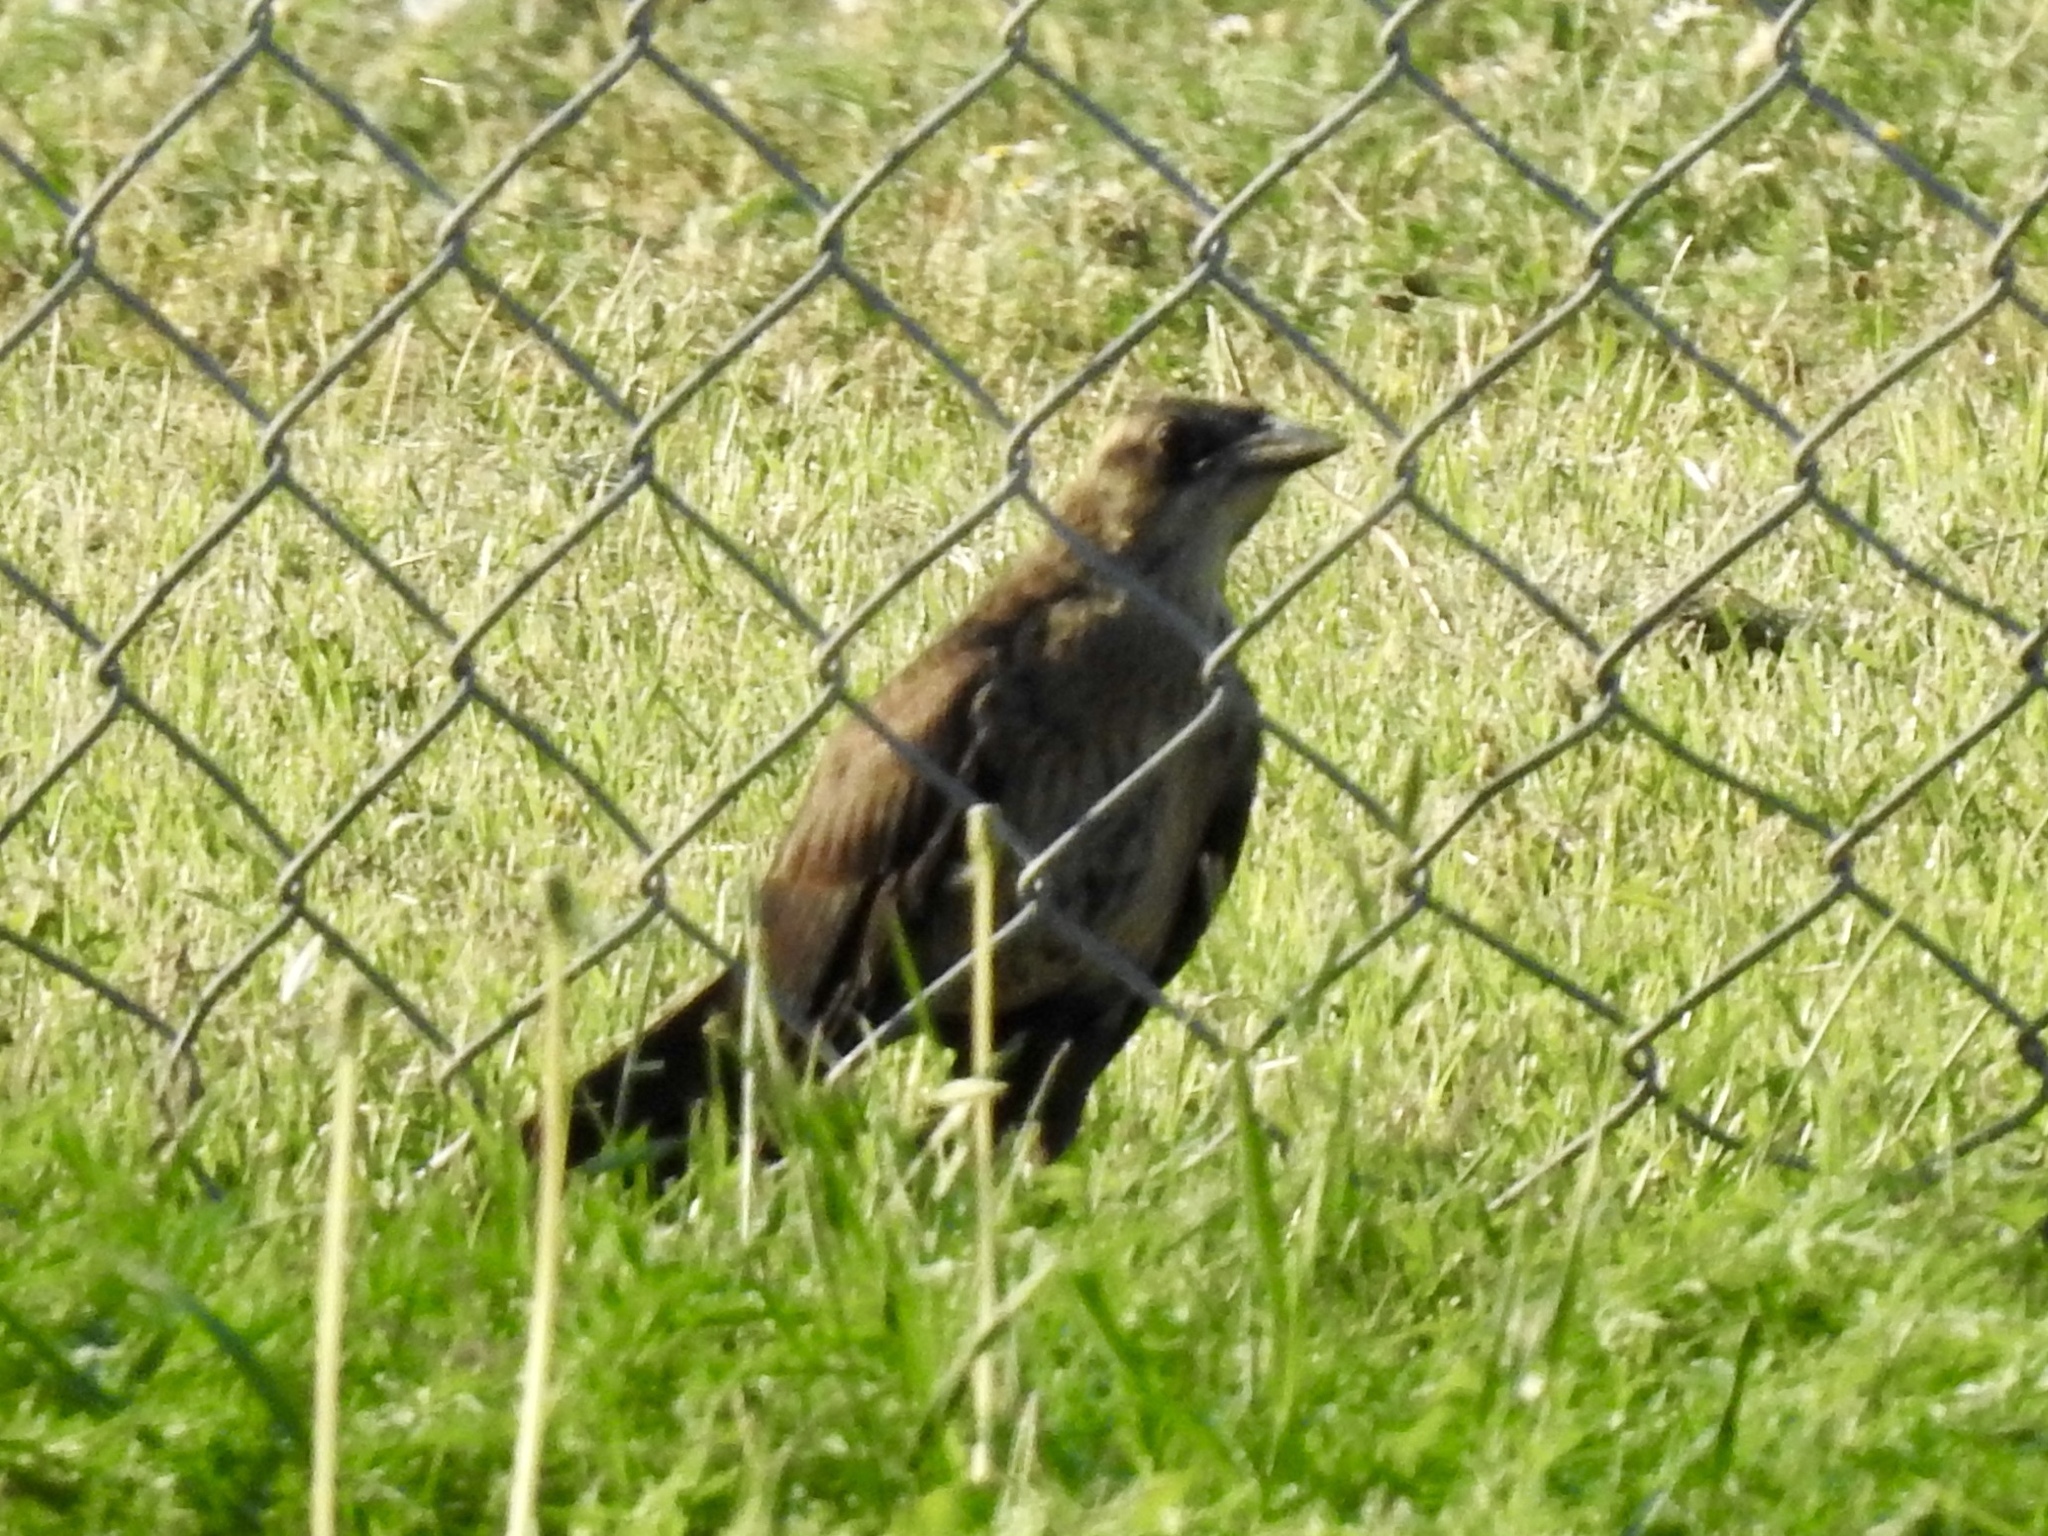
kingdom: Animalia
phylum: Chordata
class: Aves
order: Passeriformes
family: Icteridae
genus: Quiscalus
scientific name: Quiscalus mexicanus
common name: Great-tailed grackle
